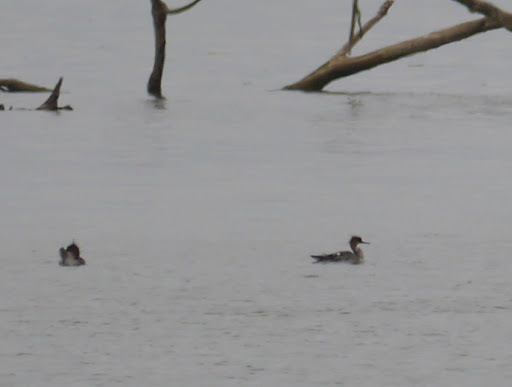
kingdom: Animalia
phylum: Chordata
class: Aves
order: Anseriformes
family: Anatidae
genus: Mergus
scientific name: Mergus serrator
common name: Red-breasted merganser
